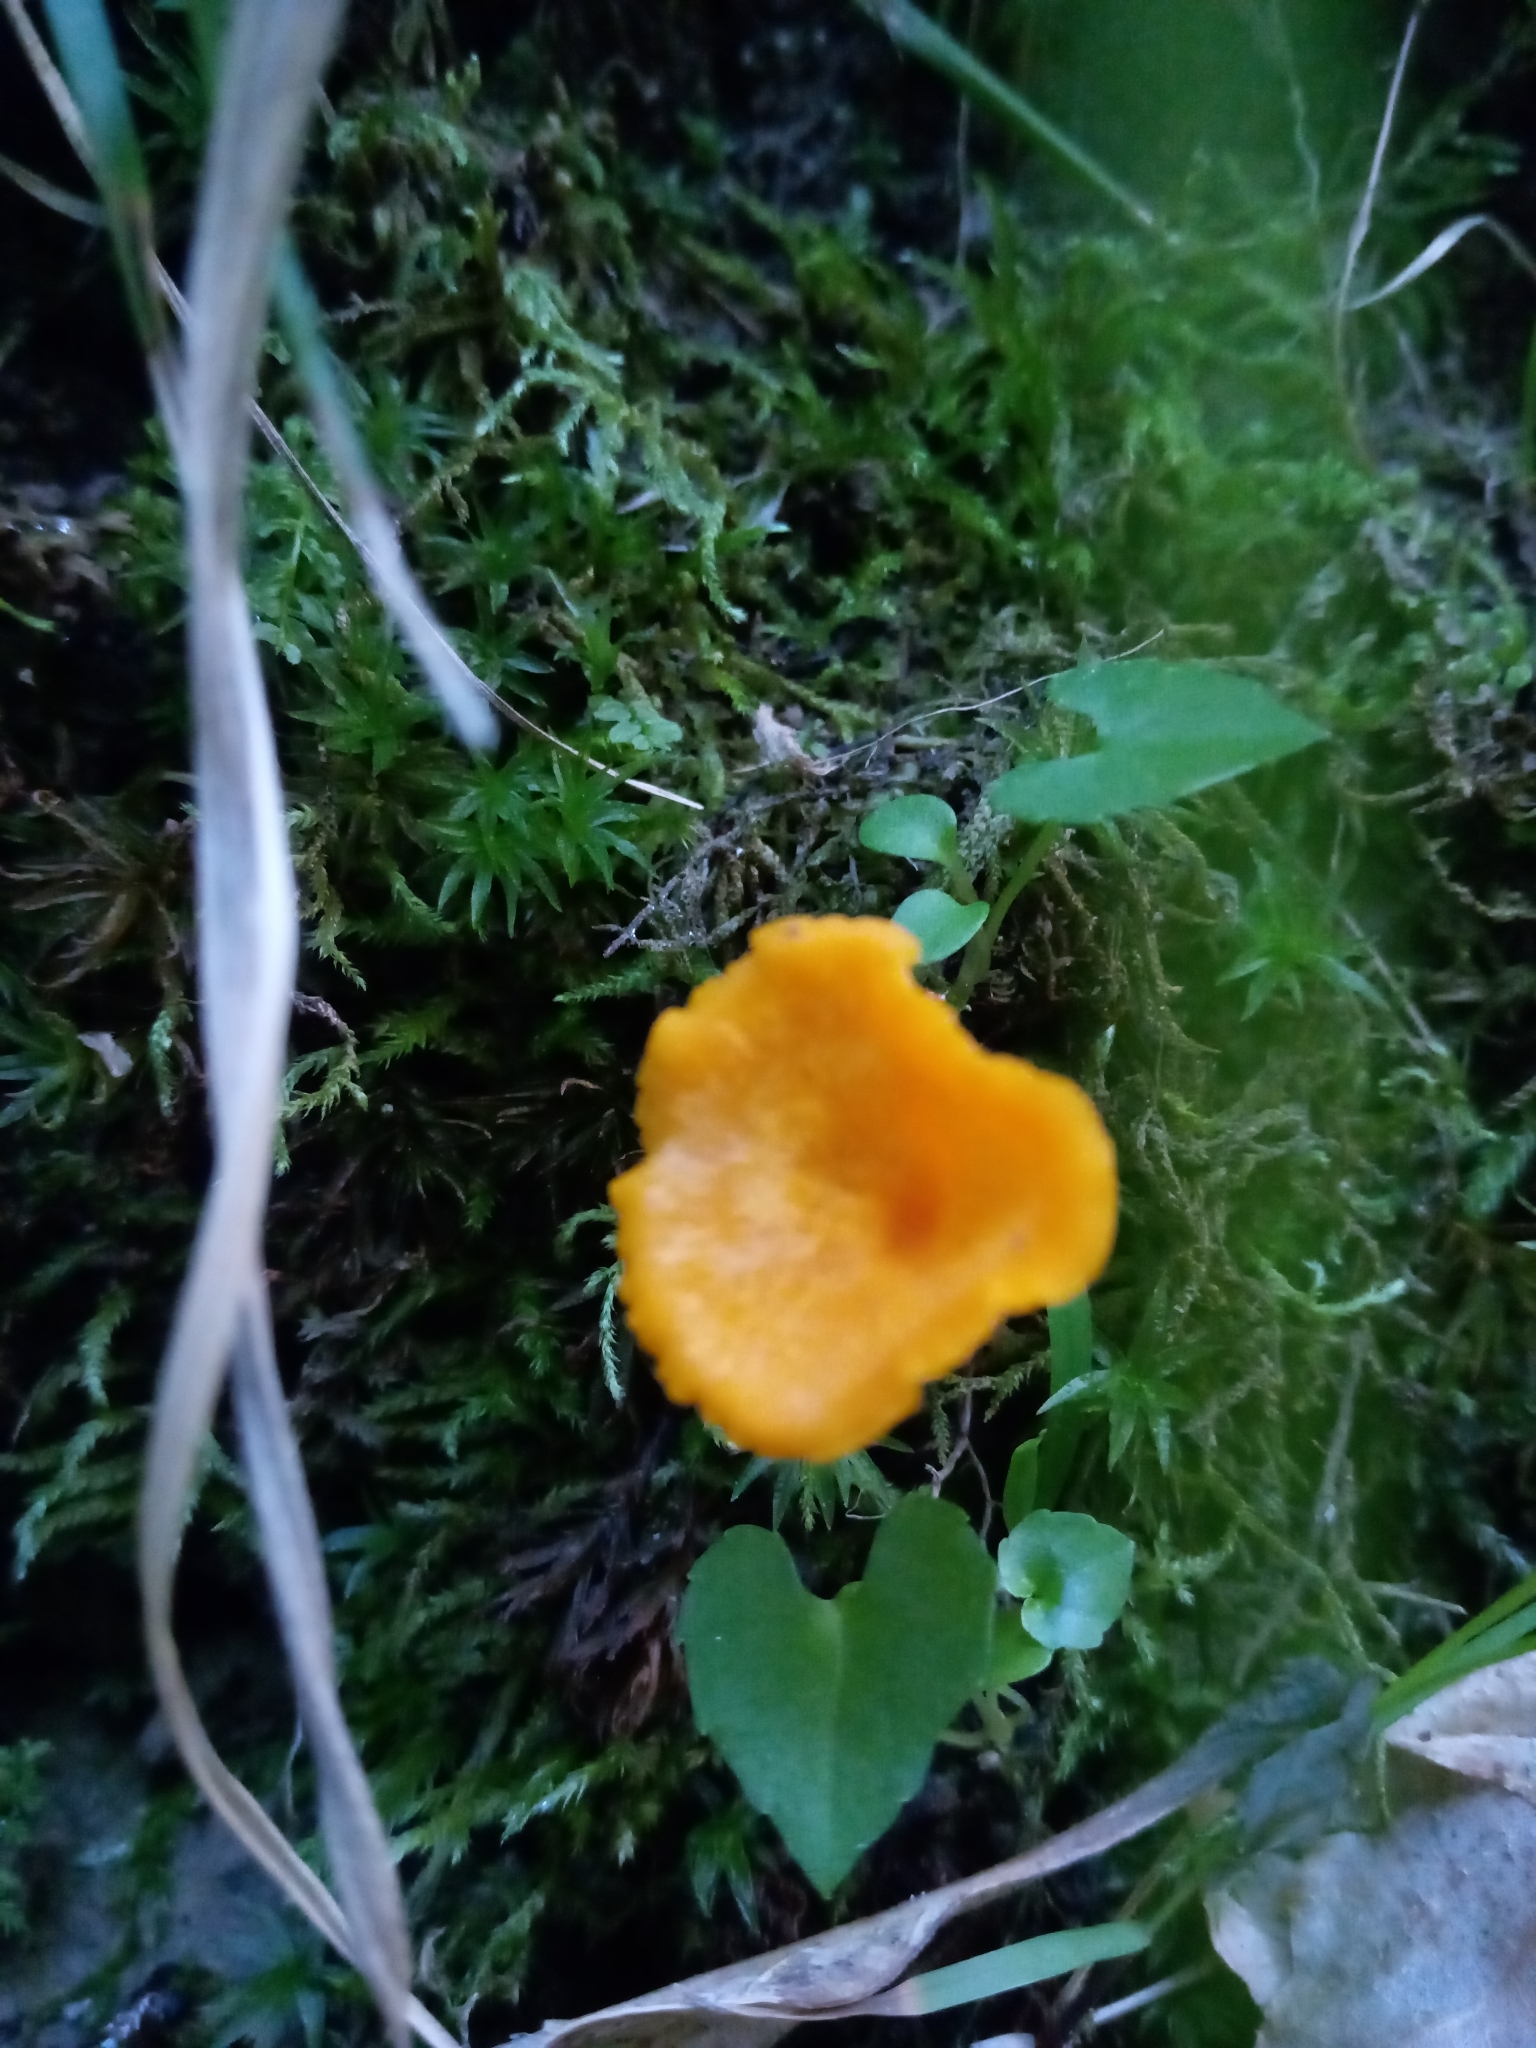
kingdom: Fungi
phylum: Basidiomycota
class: Agaricomycetes
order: Cantharellales
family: Hydnaceae
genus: Cantharellus
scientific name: Cantharellus minor
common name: Small chanterelle
